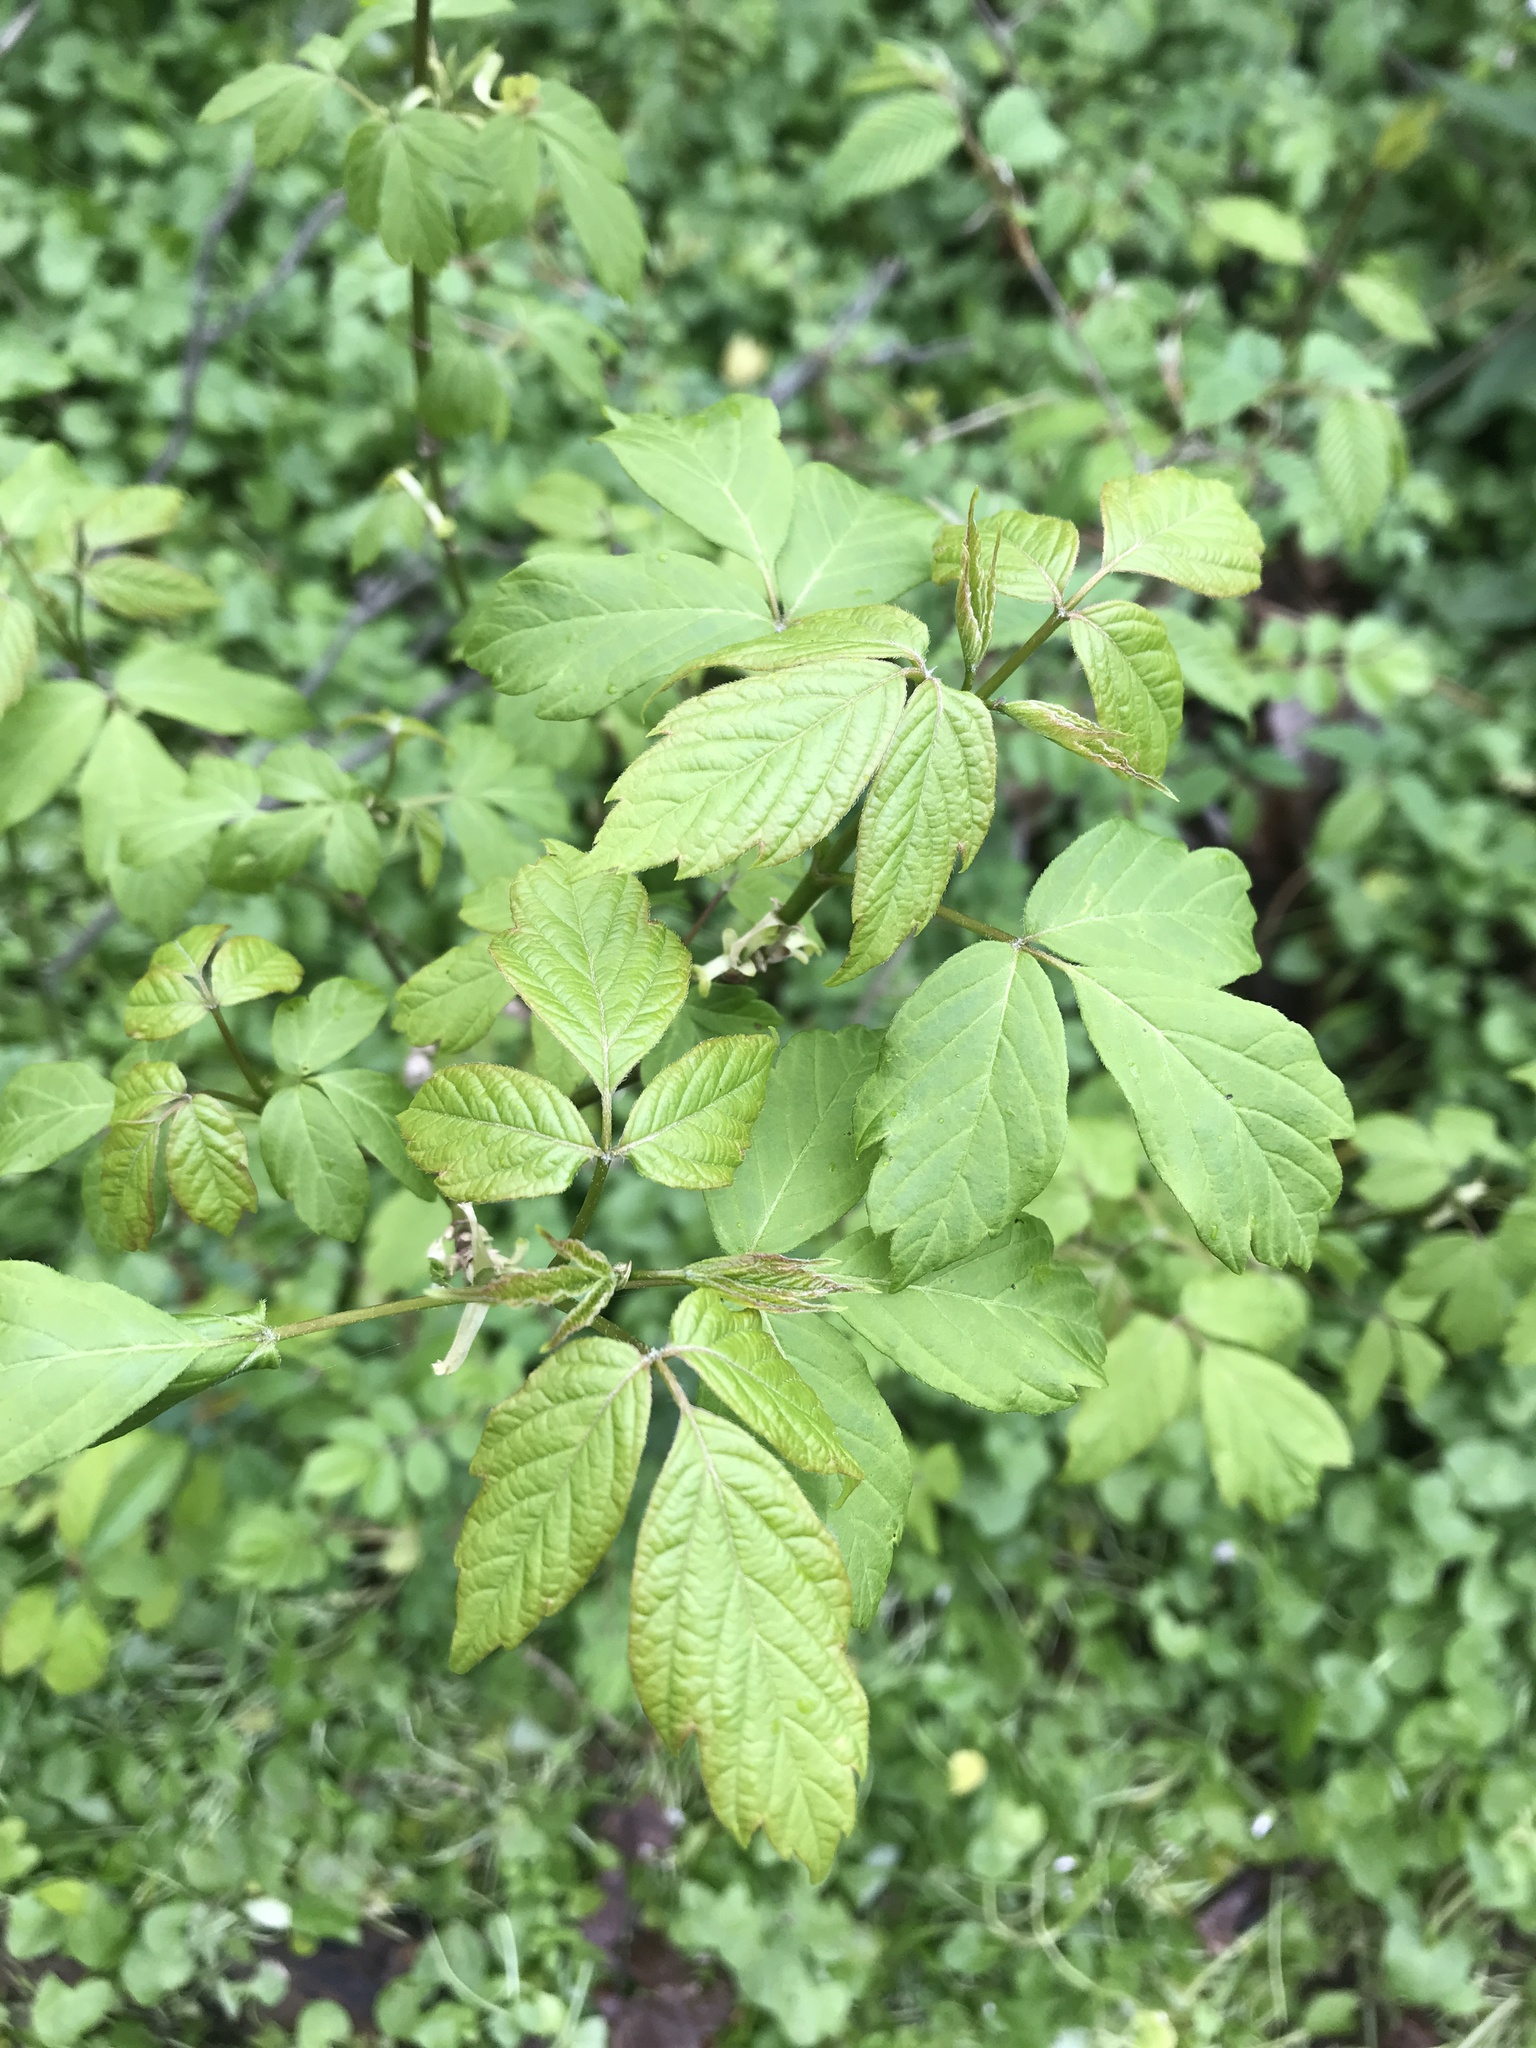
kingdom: Plantae
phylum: Tracheophyta
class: Magnoliopsida
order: Sapindales
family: Sapindaceae
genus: Acer
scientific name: Acer negundo
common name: Ashleaf maple
